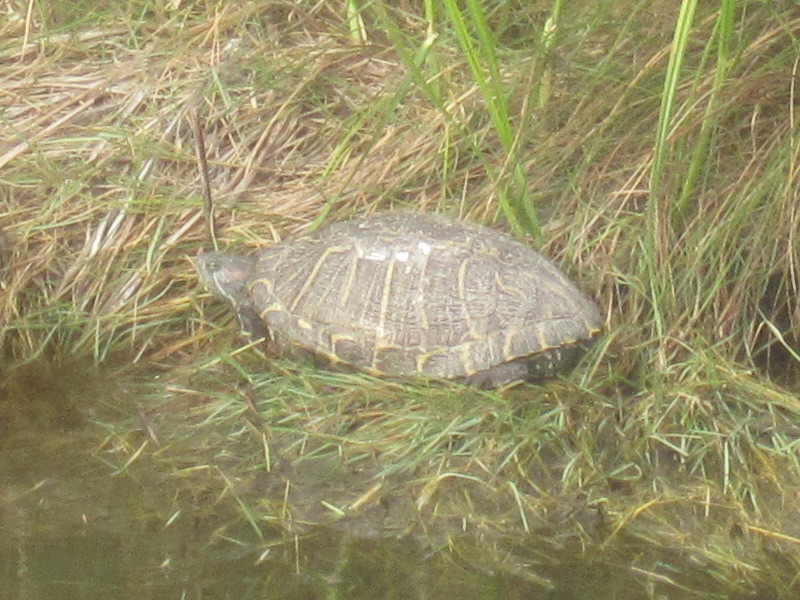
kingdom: Animalia
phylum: Chordata
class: Testudines
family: Emydidae
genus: Trachemys
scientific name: Trachemys scripta
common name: Slider
